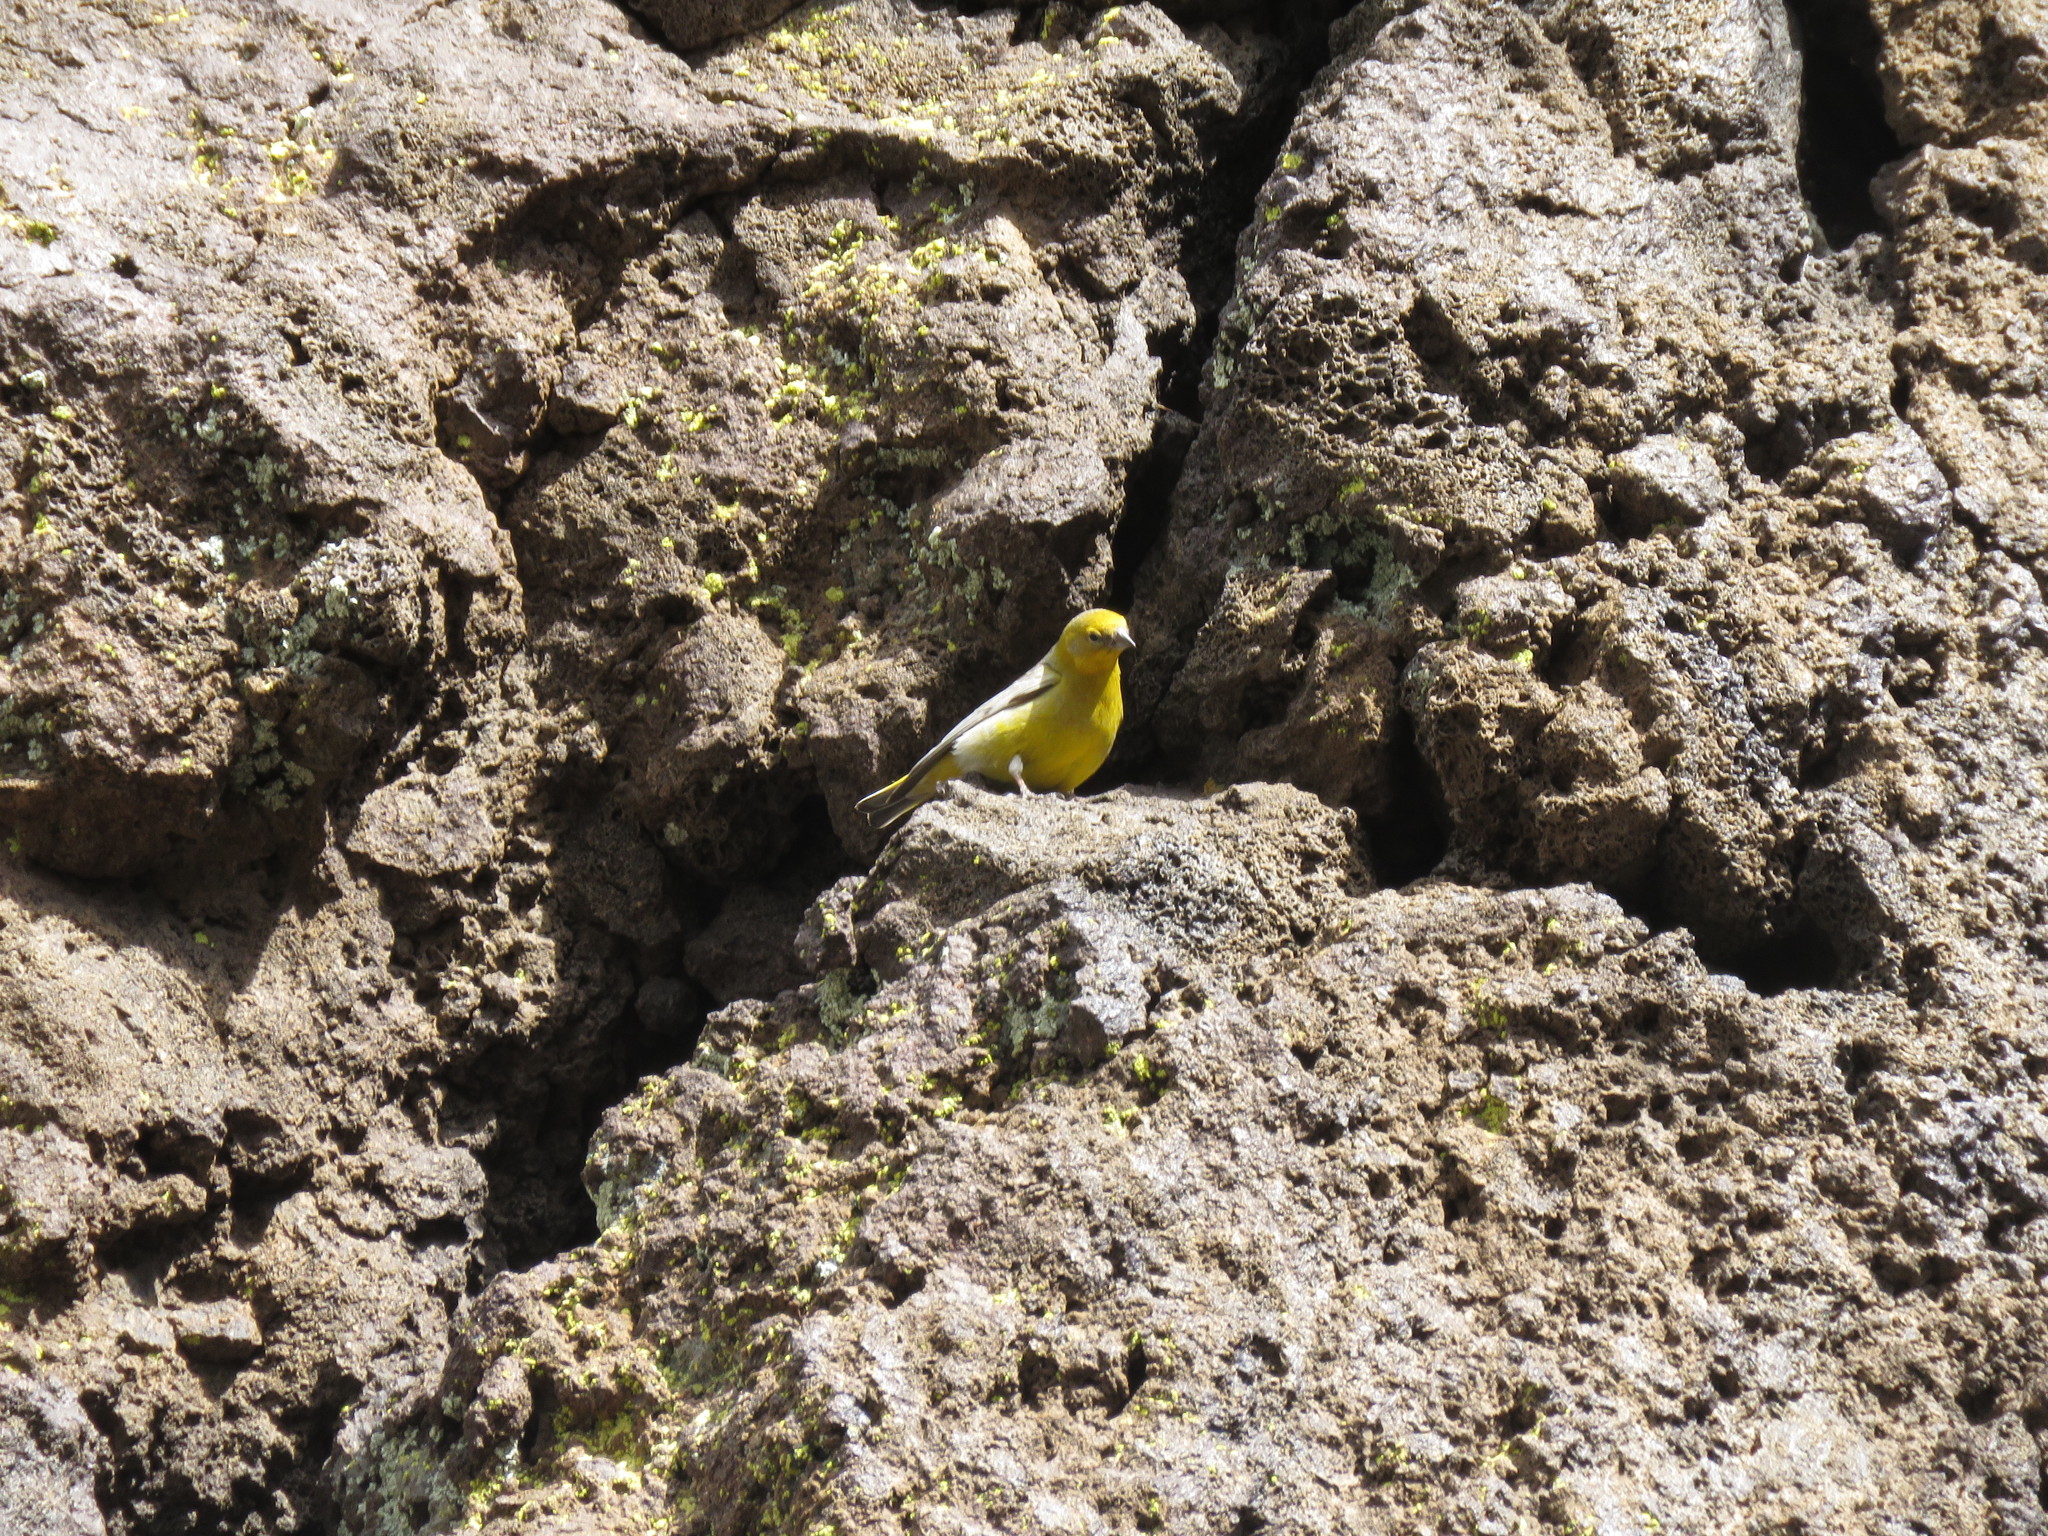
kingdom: Animalia
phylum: Chordata
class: Aves
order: Passeriformes
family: Thraupidae
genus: Sicalis
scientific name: Sicalis auriventris
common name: Greater yellow finch
